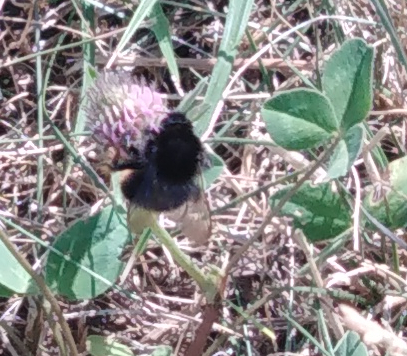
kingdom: Animalia
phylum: Arthropoda
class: Insecta
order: Hymenoptera
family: Apidae
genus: Bombus
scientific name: Bombus
